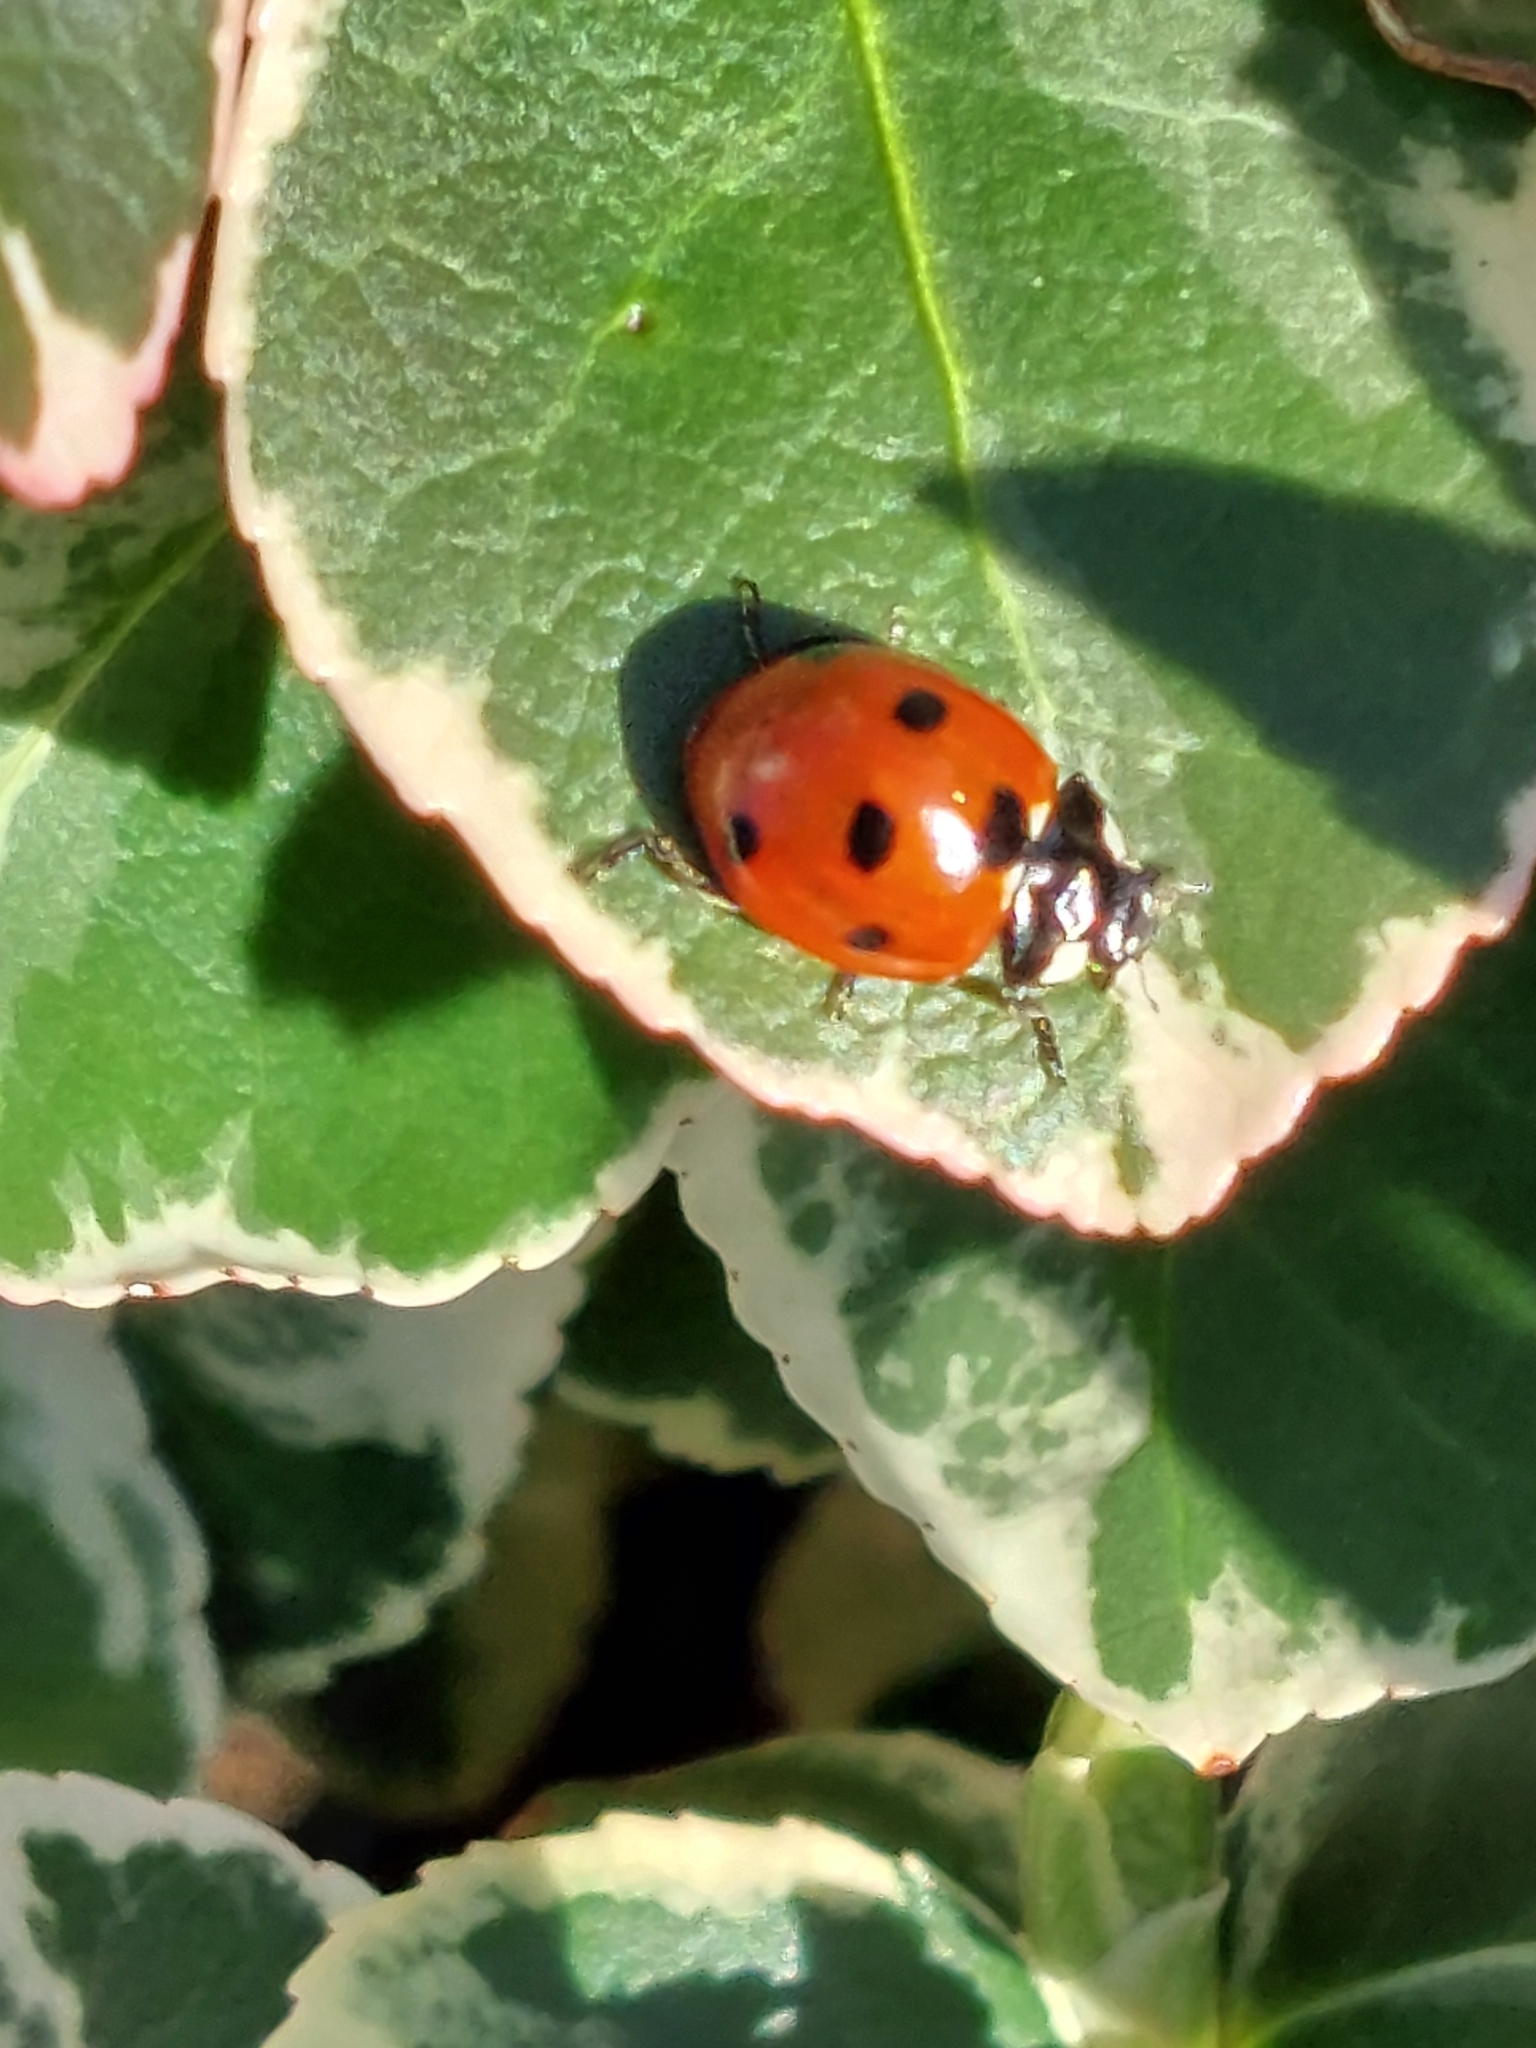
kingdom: Animalia
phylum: Arthropoda
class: Insecta
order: Coleoptera
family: Coccinellidae
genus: Coccinella
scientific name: Coccinella septempunctata
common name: Sevenspotted lady beetle
